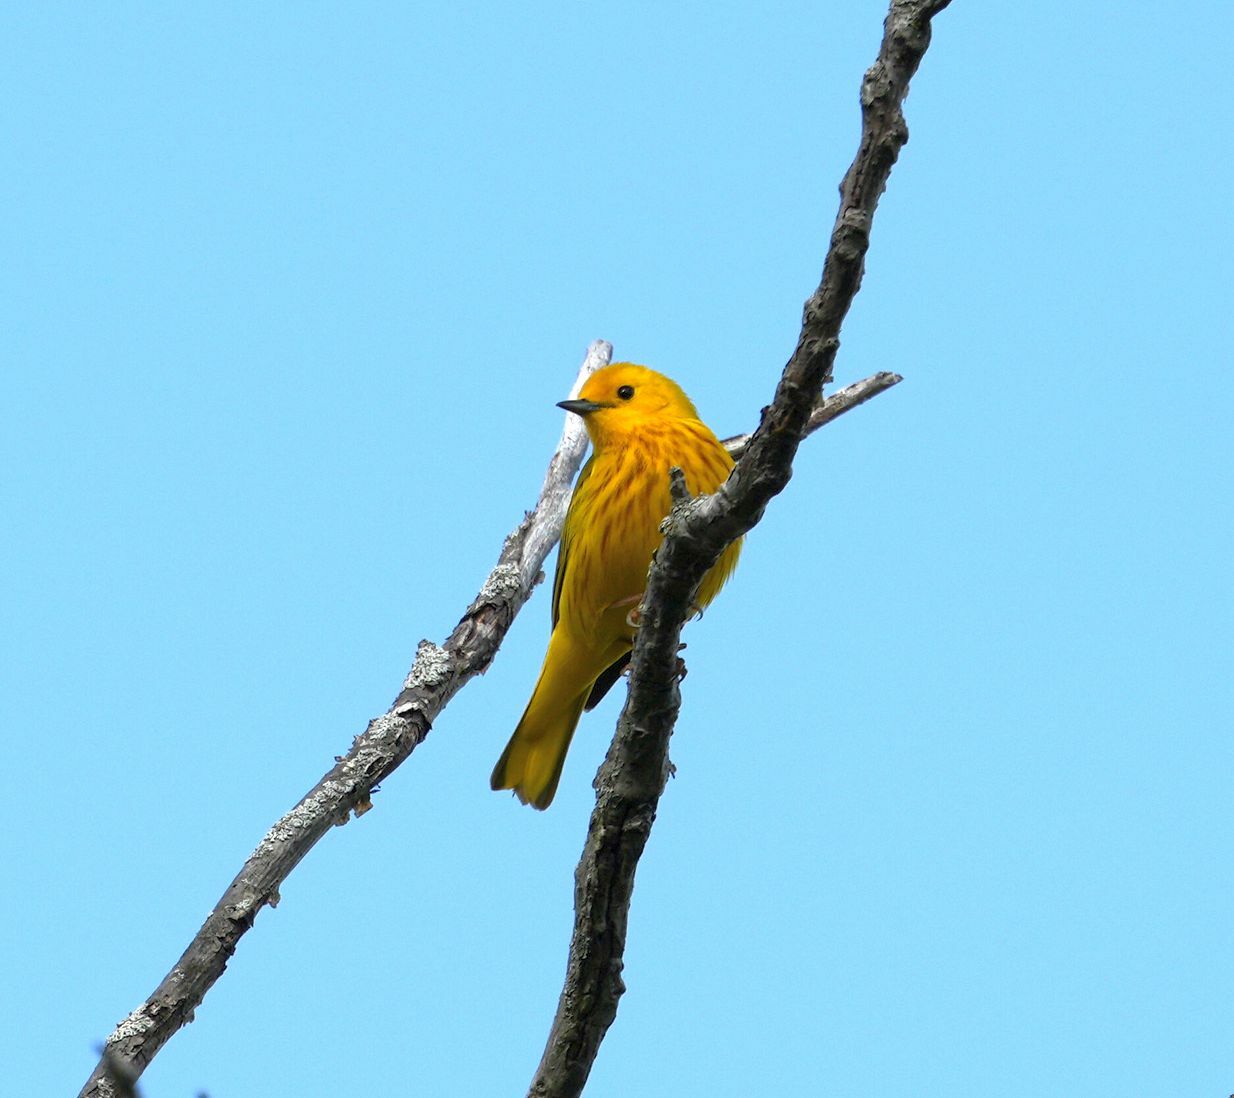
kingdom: Animalia
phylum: Chordata
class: Aves
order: Passeriformes
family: Parulidae
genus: Setophaga
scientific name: Setophaga petechia
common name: Yellow warbler
